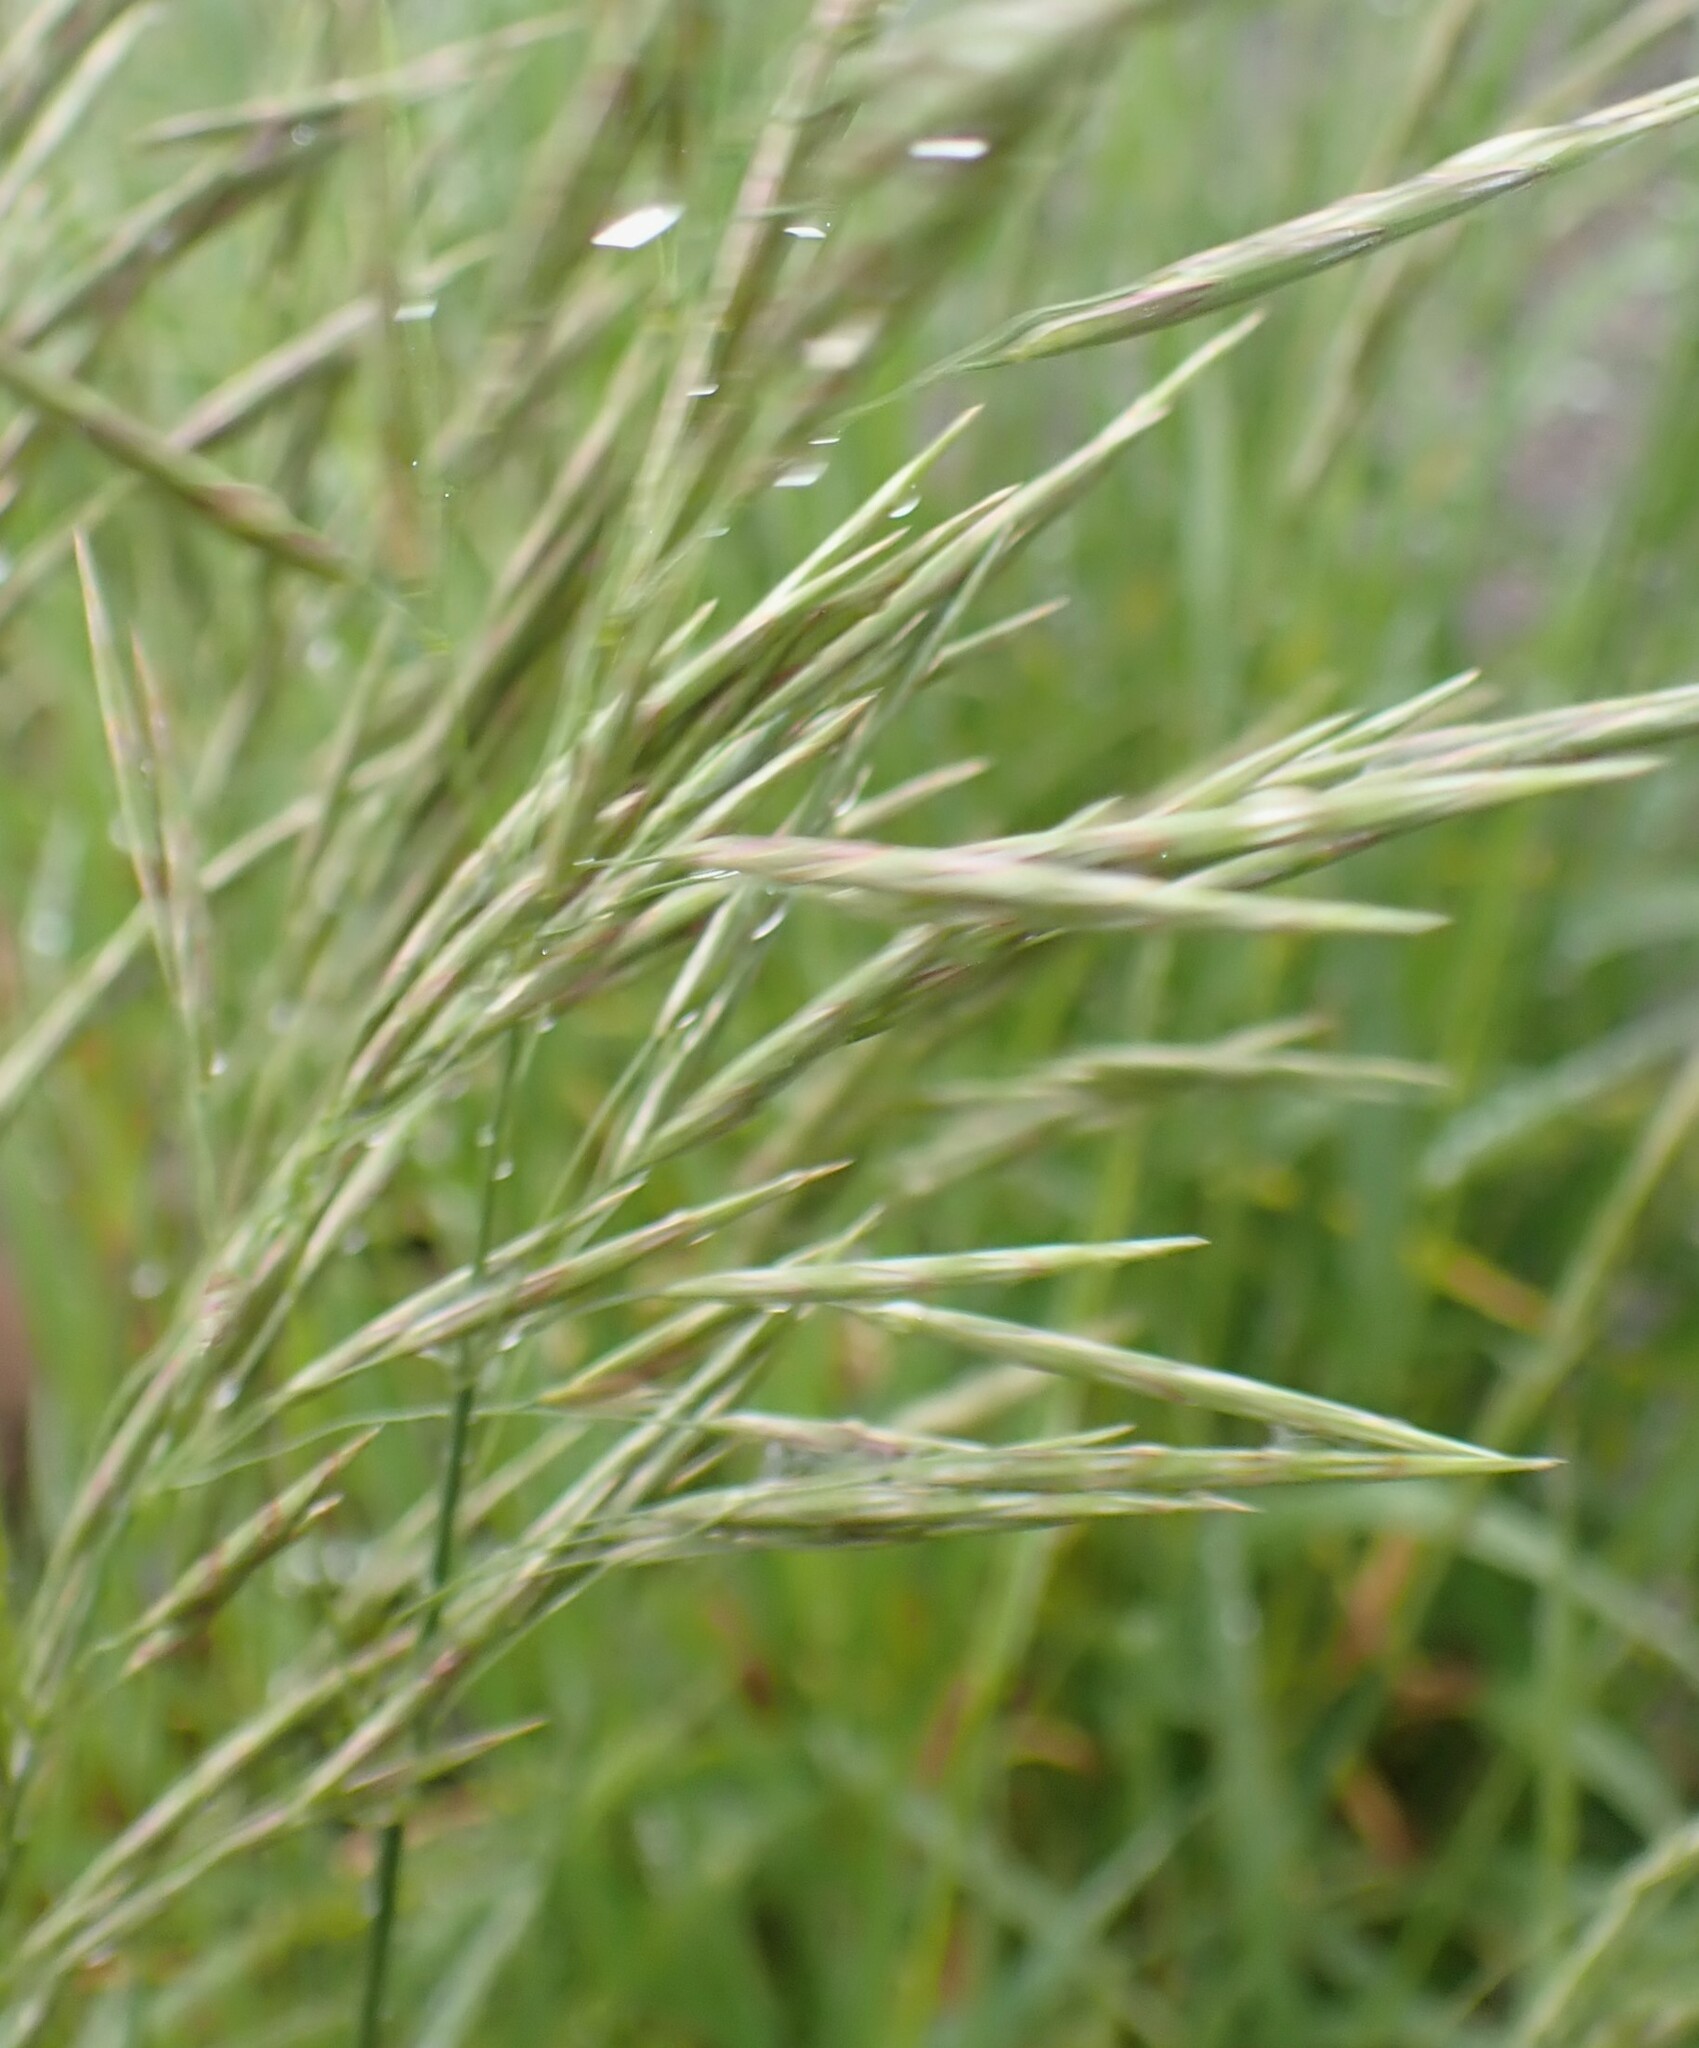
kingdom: Plantae
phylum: Tracheophyta
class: Liliopsida
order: Poales
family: Poaceae
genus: Bromus
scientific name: Bromus inermis
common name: Smooth brome
